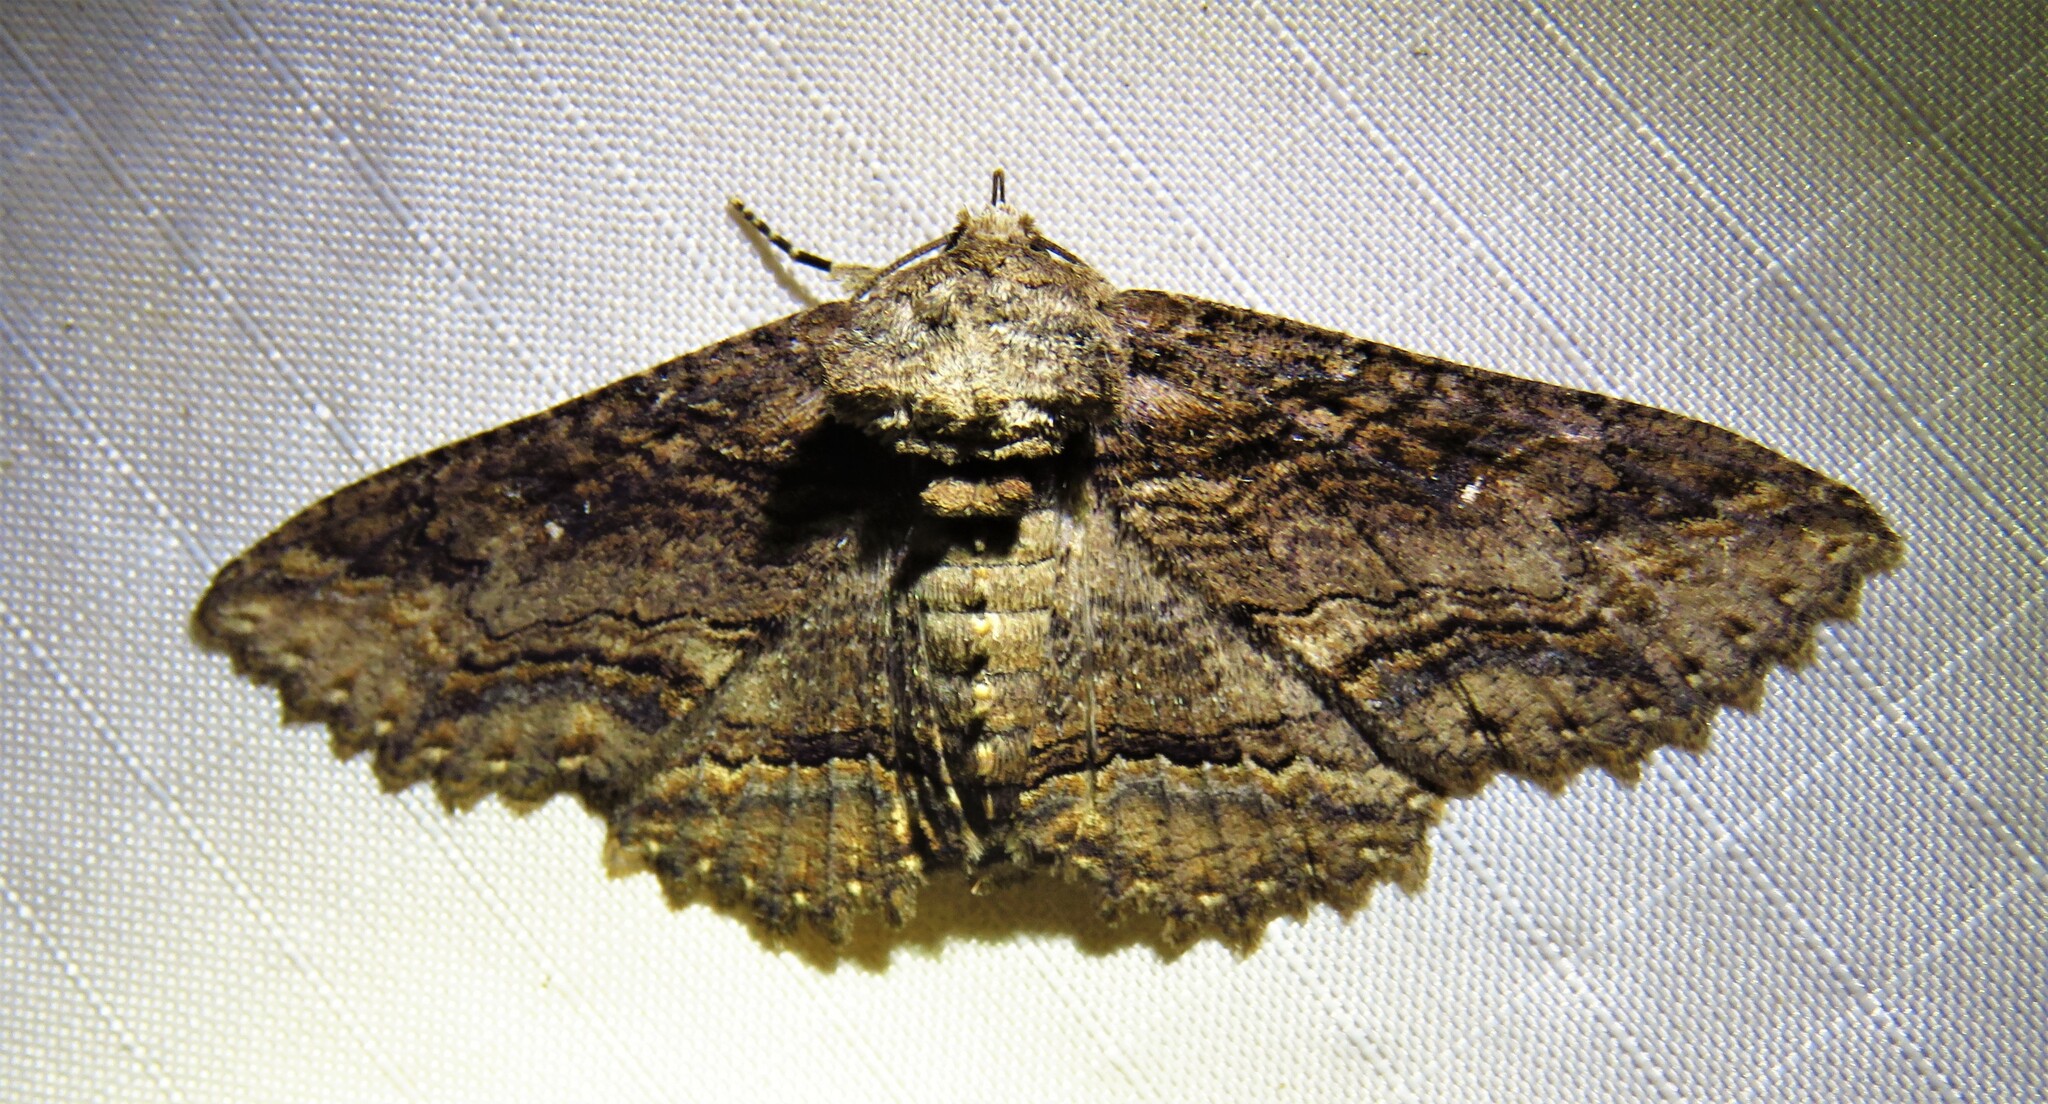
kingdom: Animalia
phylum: Arthropoda
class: Insecta
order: Lepidoptera
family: Erebidae
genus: Zale
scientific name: Zale lunata
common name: Lunate zale moth
